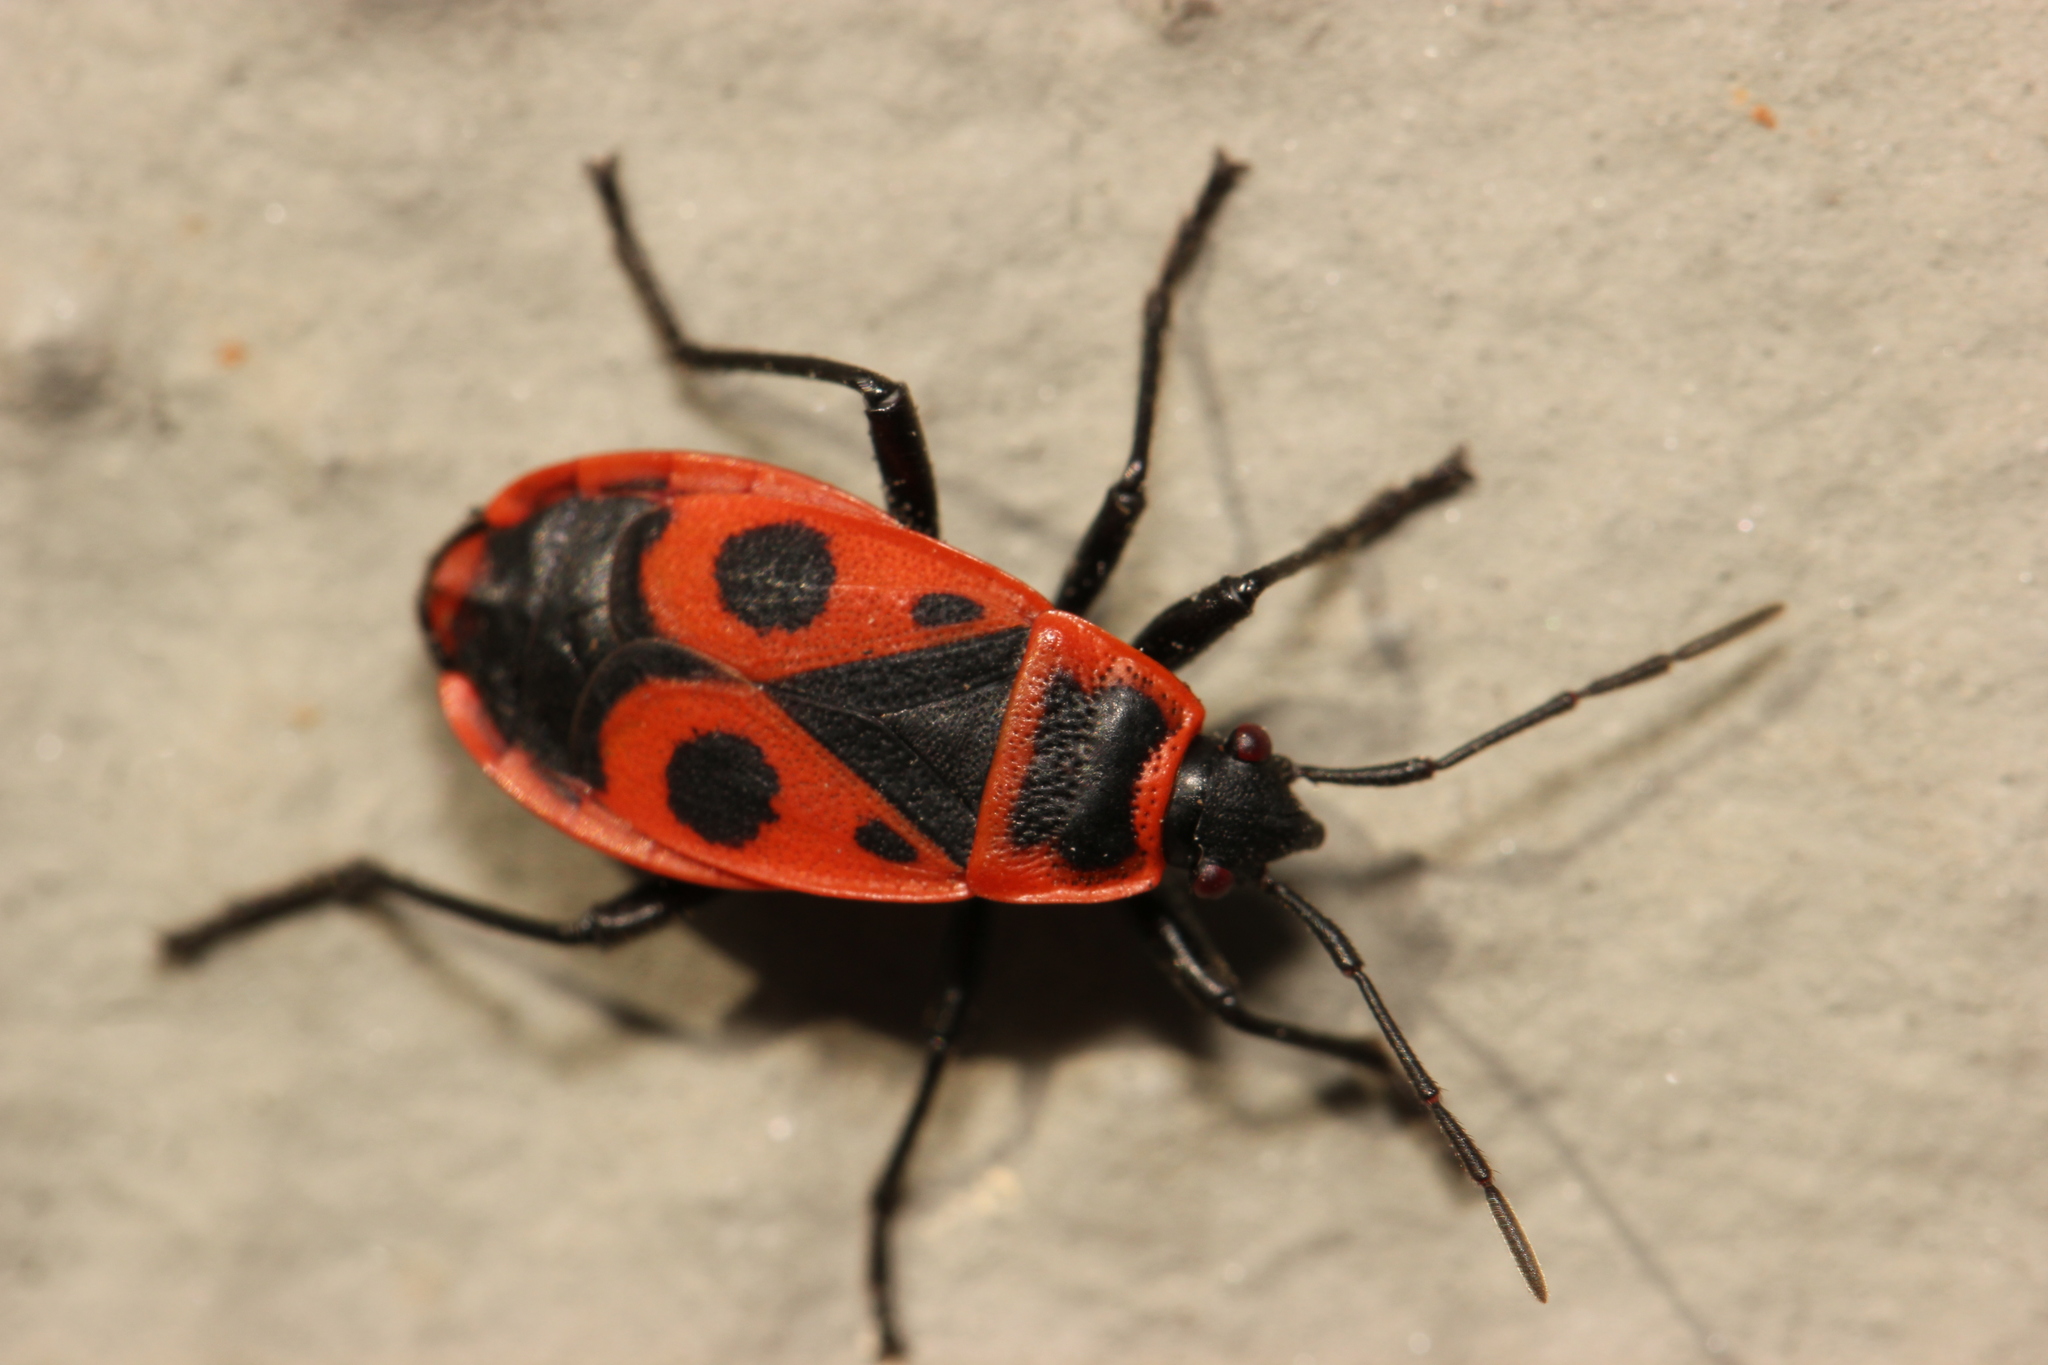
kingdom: Animalia
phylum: Arthropoda
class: Insecta
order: Hemiptera
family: Pyrrhocoridae
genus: Pyrrhocoris
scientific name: Pyrrhocoris apterus
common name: Firebug
